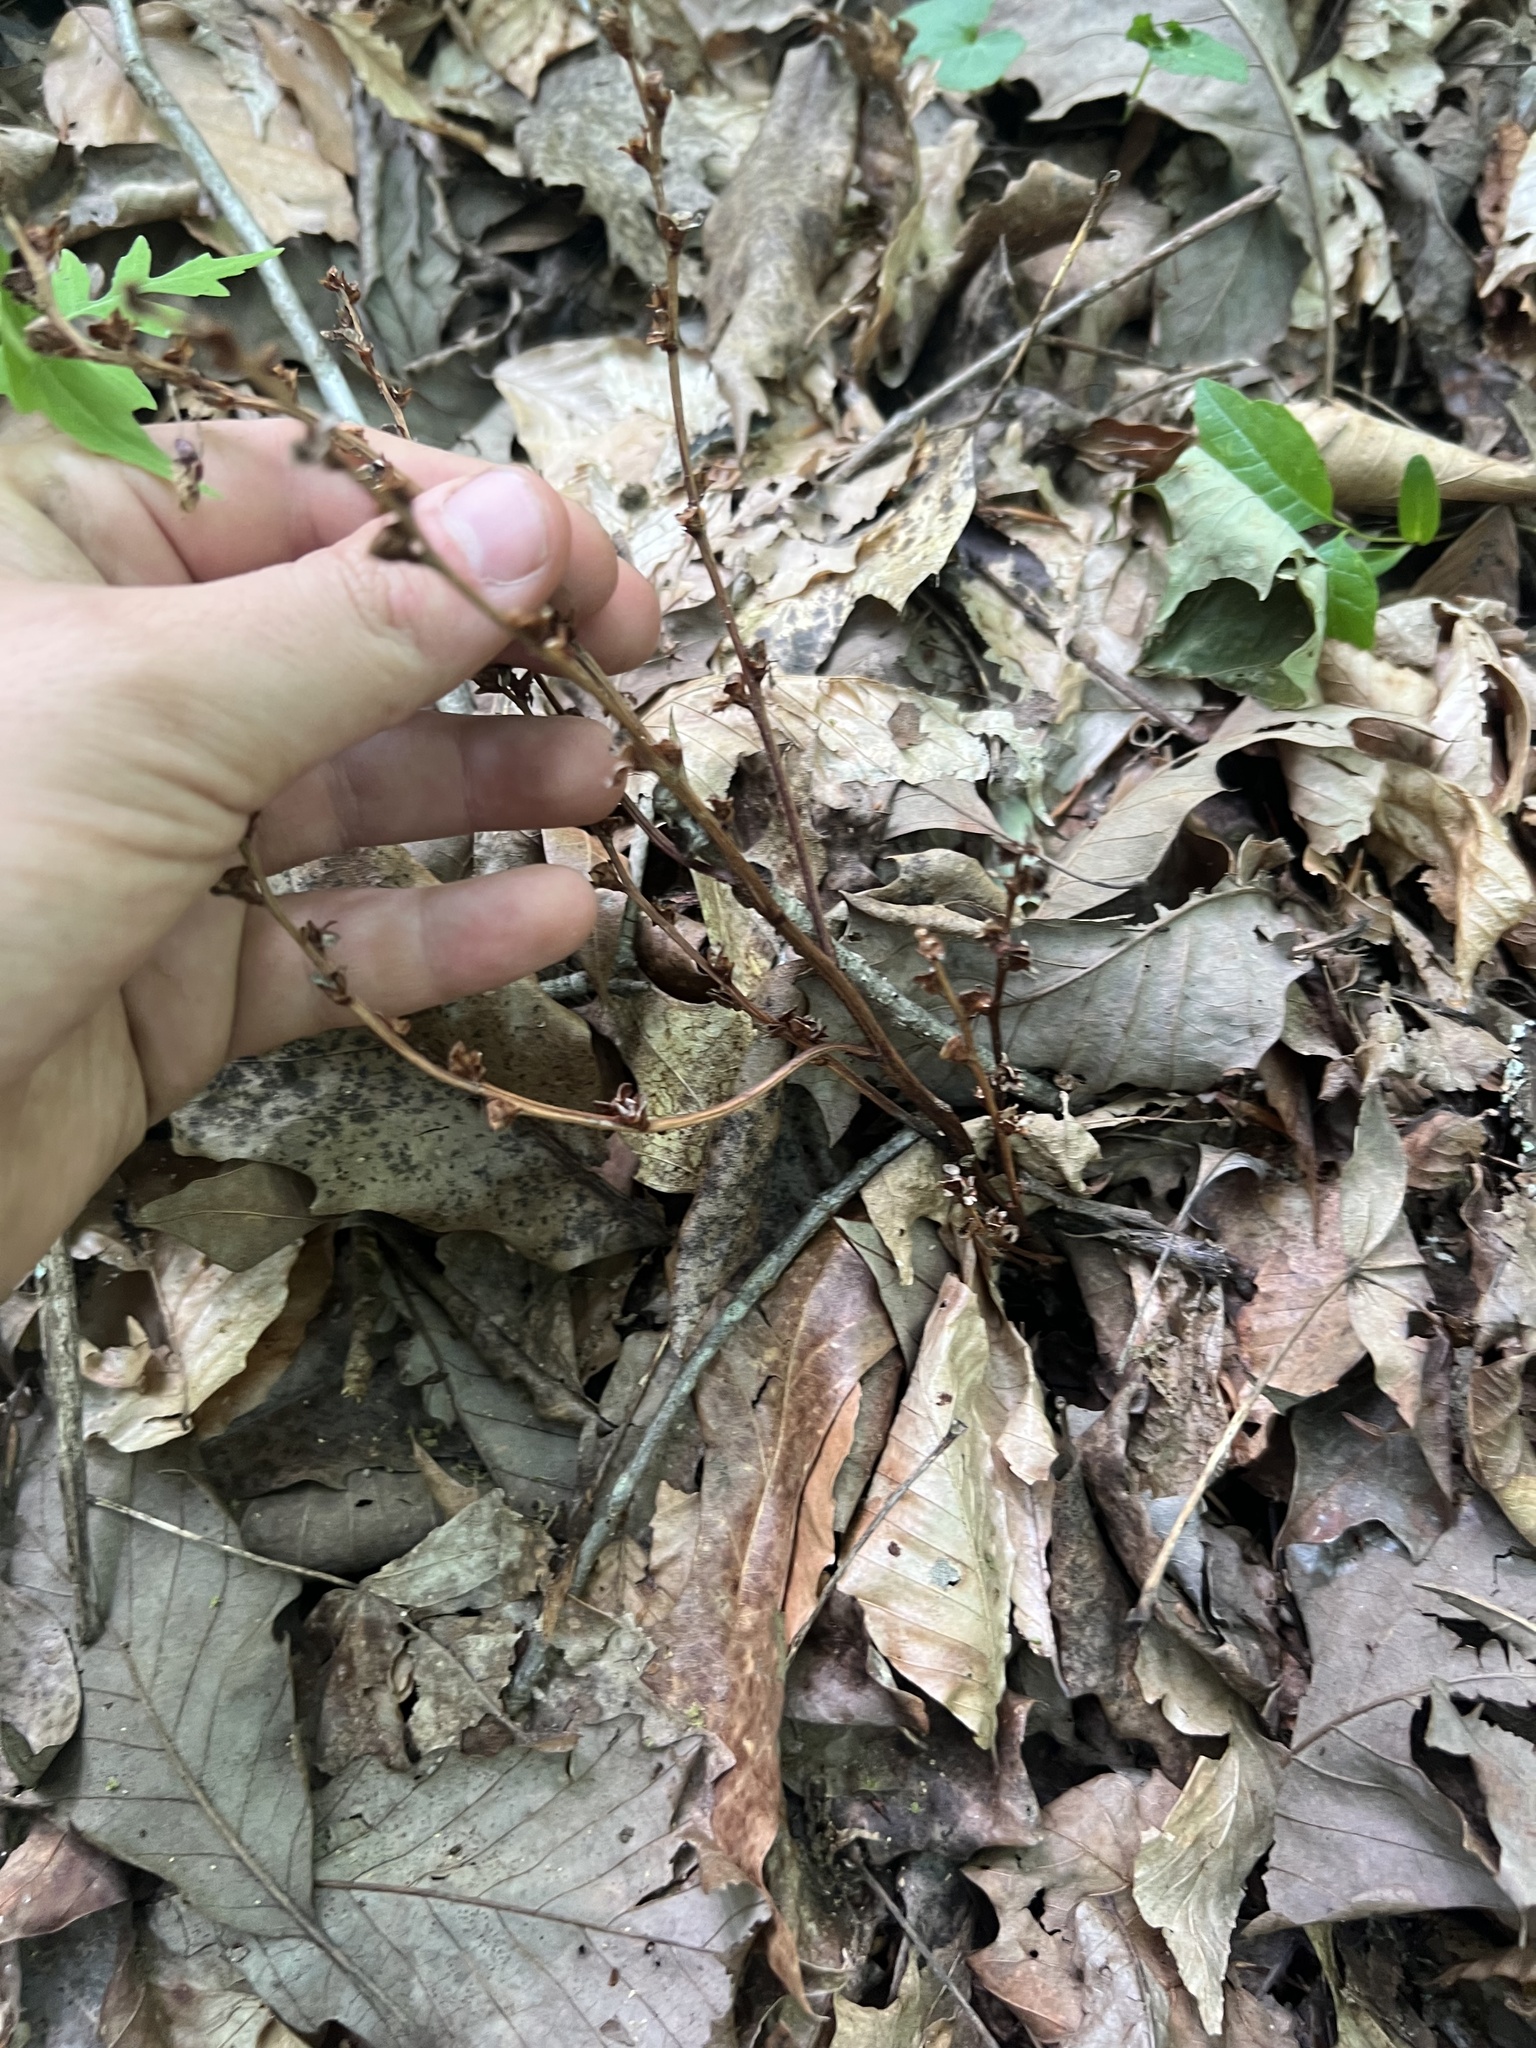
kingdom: Plantae
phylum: Tracheophyta
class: Magnoliopsida
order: Lamiales
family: Orobanchaceae
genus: Epifagus
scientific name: Epifagus virginiana
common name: Beechdrops
